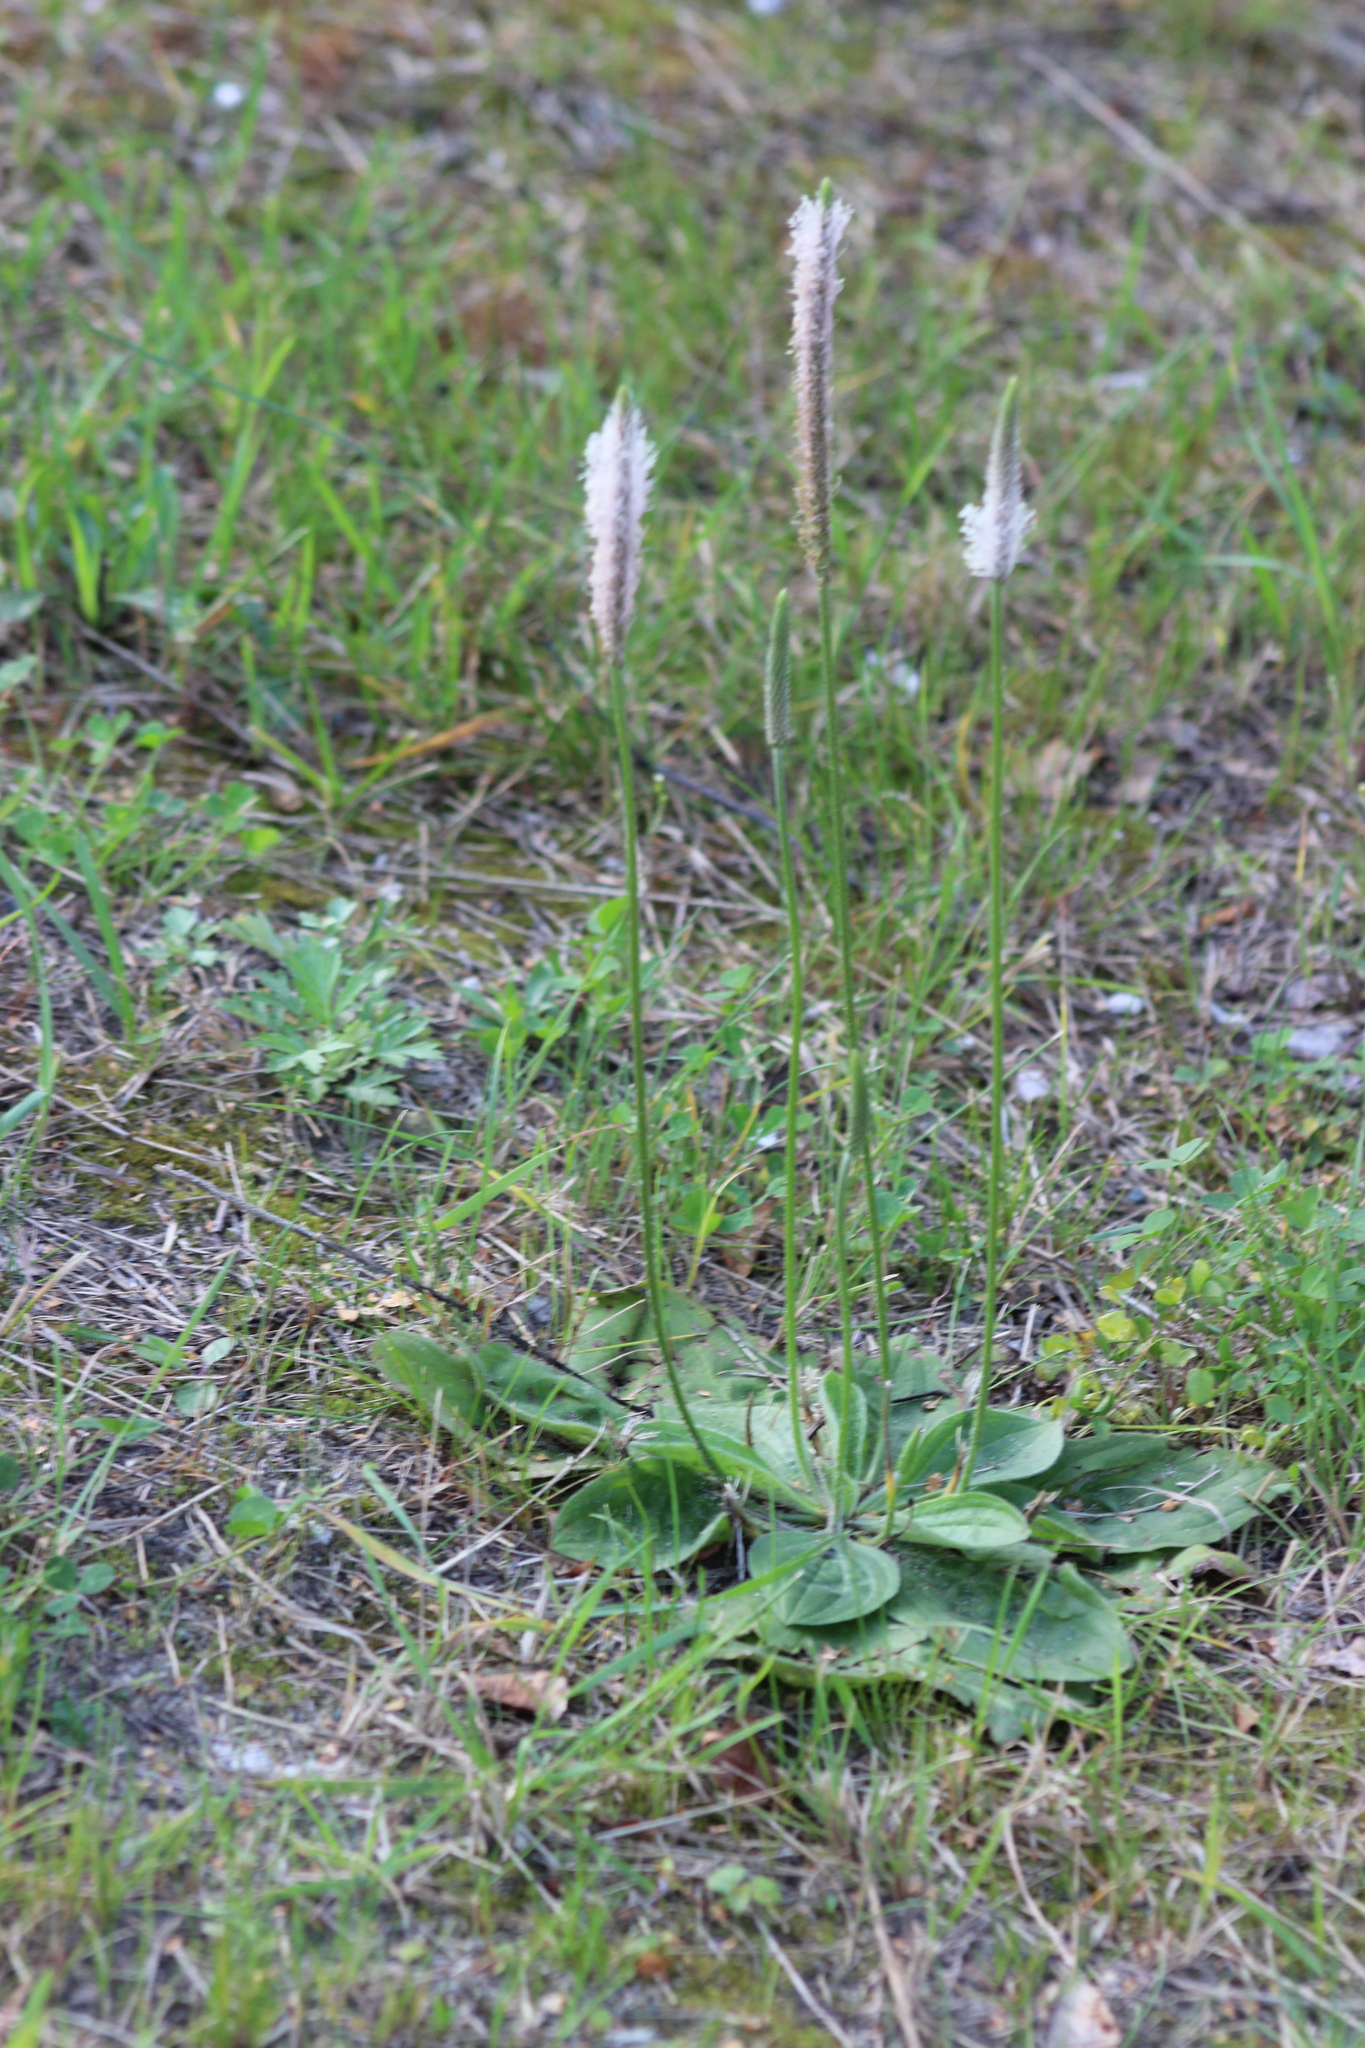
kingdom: Plantae
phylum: Tracheophyta
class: Magnoliopsida
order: Lamiales
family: Plantaginaceae
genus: Plantago
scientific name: Plantago media
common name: Hoary plantain
